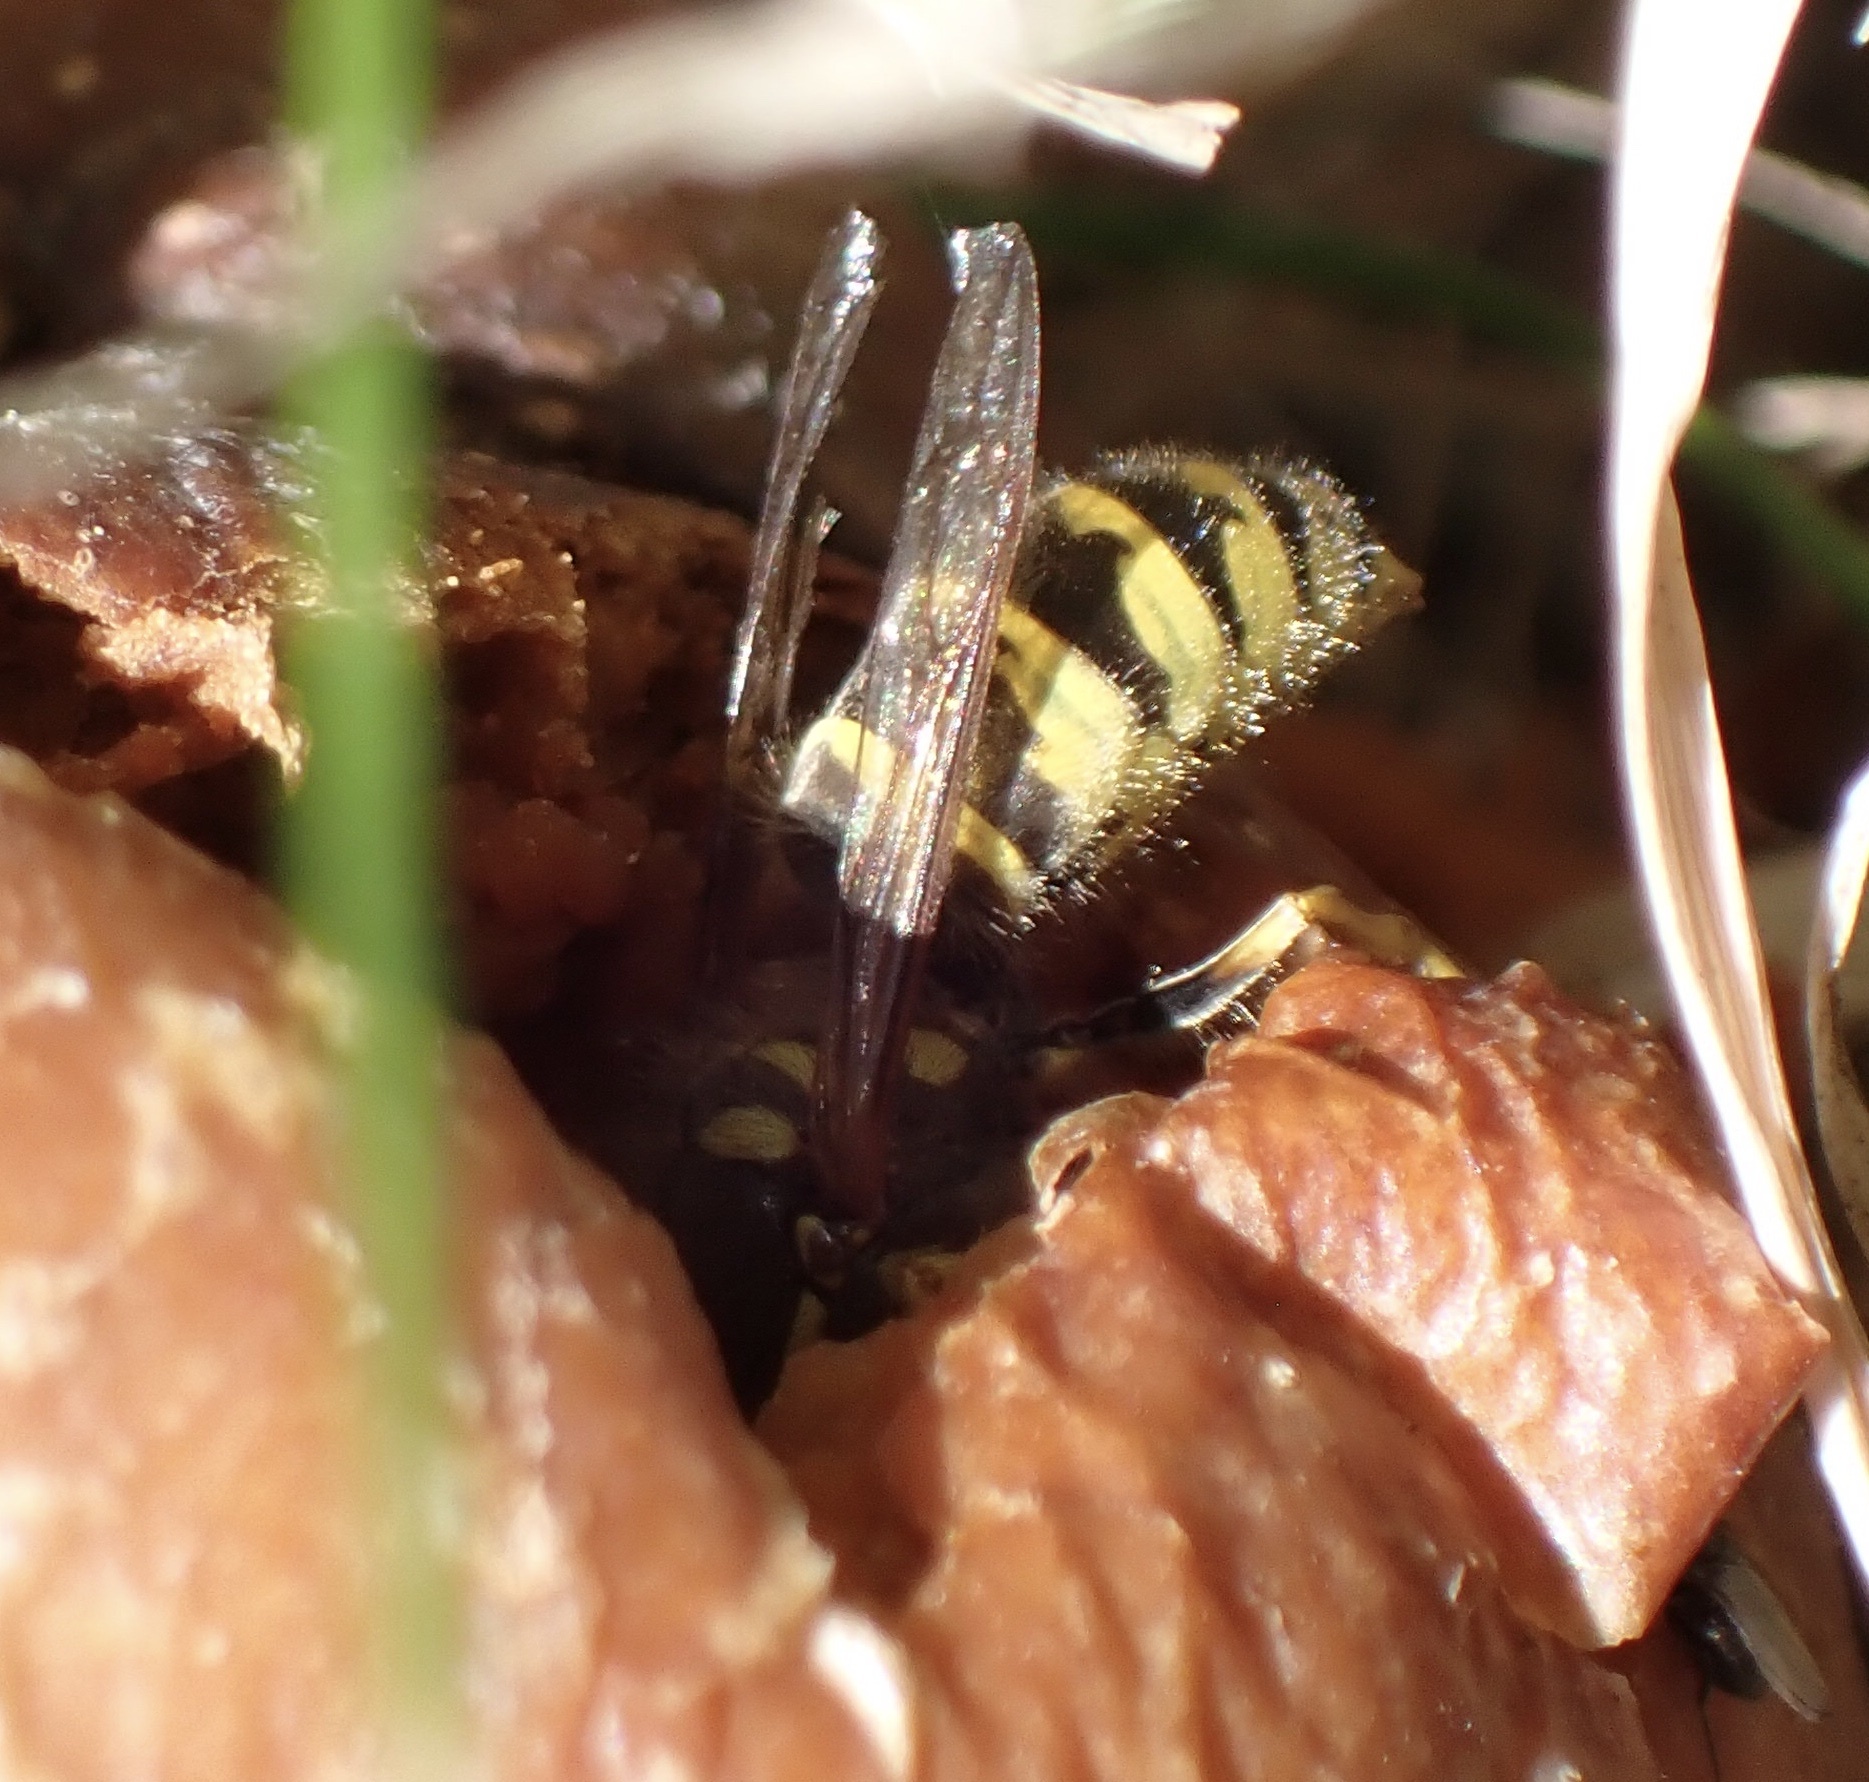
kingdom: Animalia
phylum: Arthropoda
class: Insecta
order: Hymenoptera
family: Vespidae
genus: Vespula
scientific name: Vespula vulgaris
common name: Common wasp
